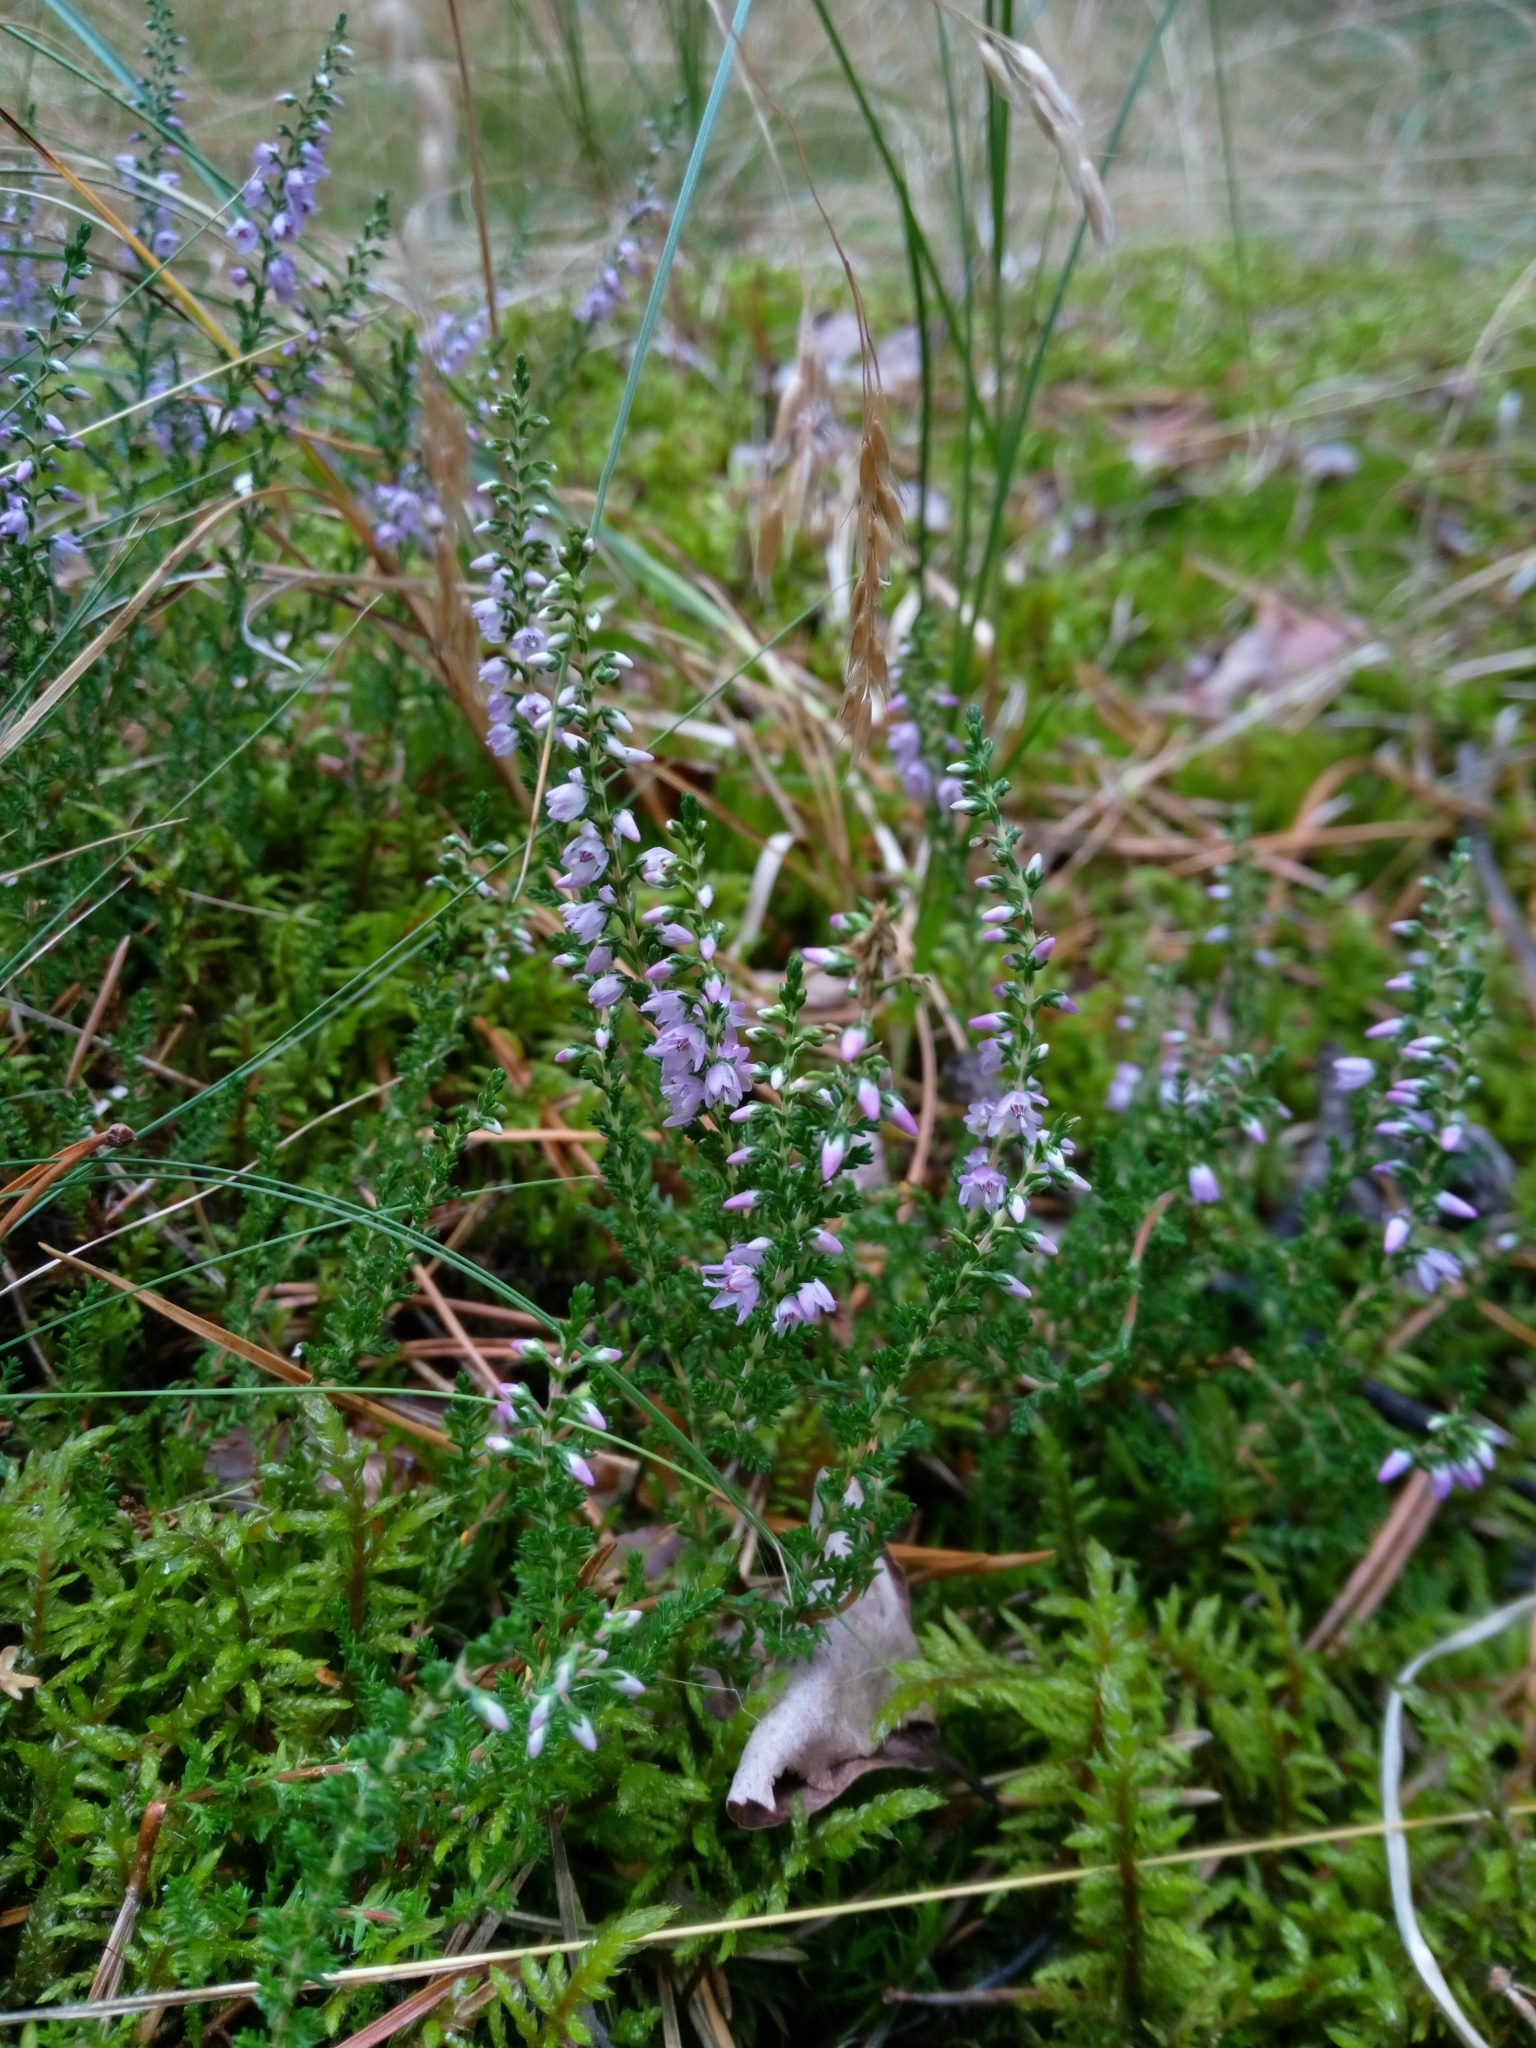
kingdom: Plantae
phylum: Tracheophyta
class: Magnoliopsida
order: Ericales
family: Ericaceae
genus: Calluna
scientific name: Calluna vulgaris
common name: Heather
